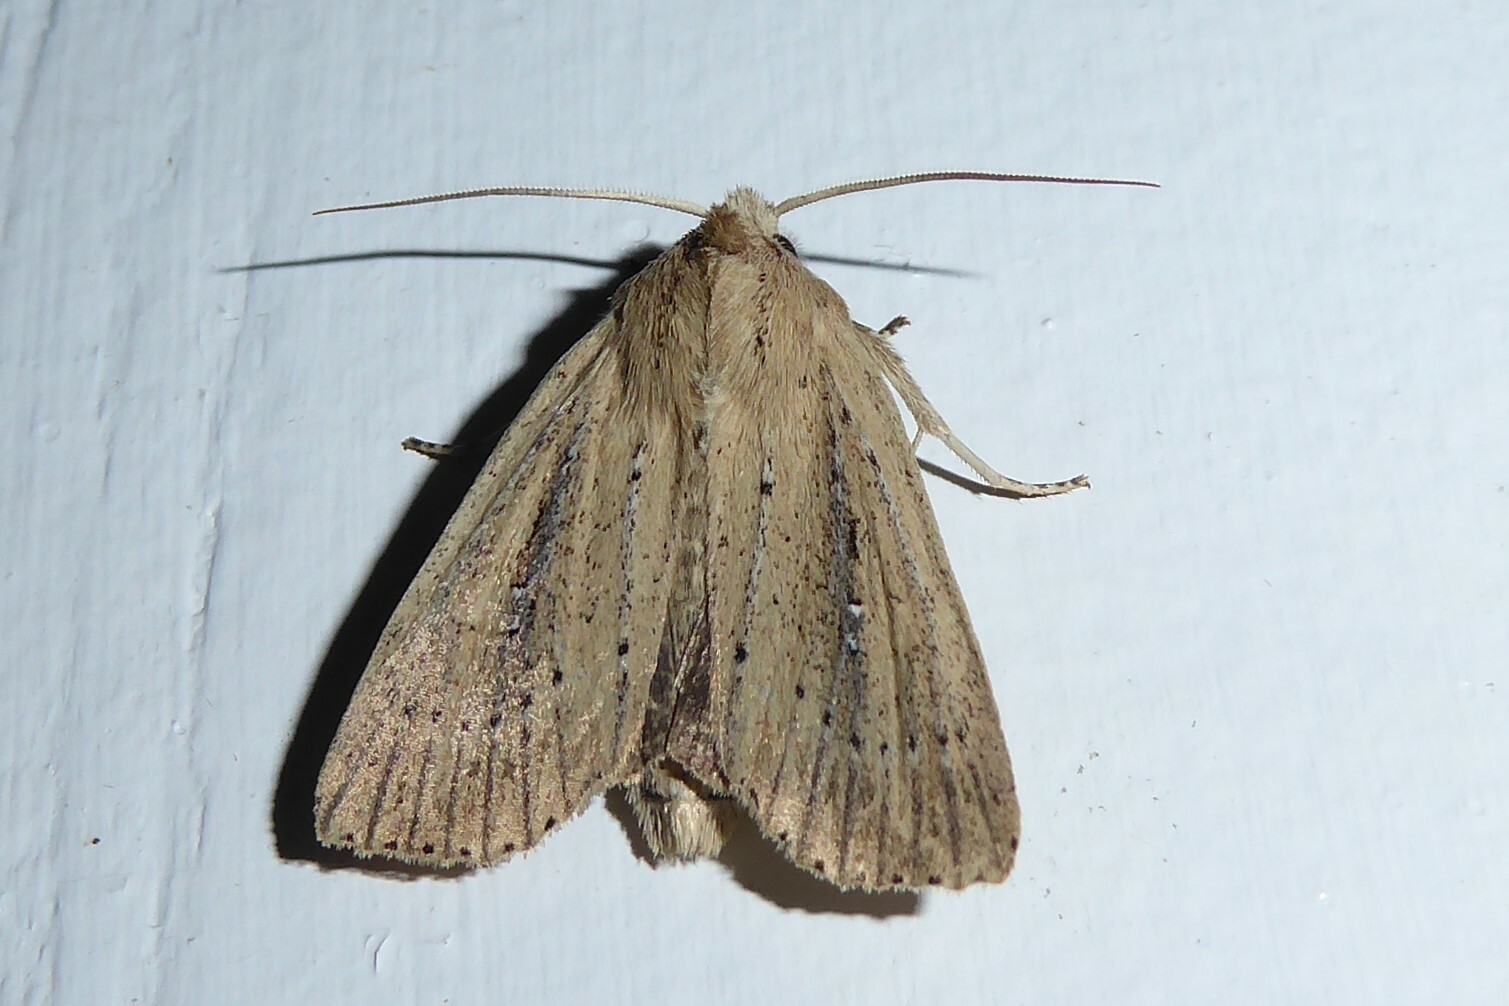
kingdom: Animalia
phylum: Arthropoda
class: Insecta
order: Lepidoptera
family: Noctuidae
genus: Ichneutica
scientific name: Ichneutica
